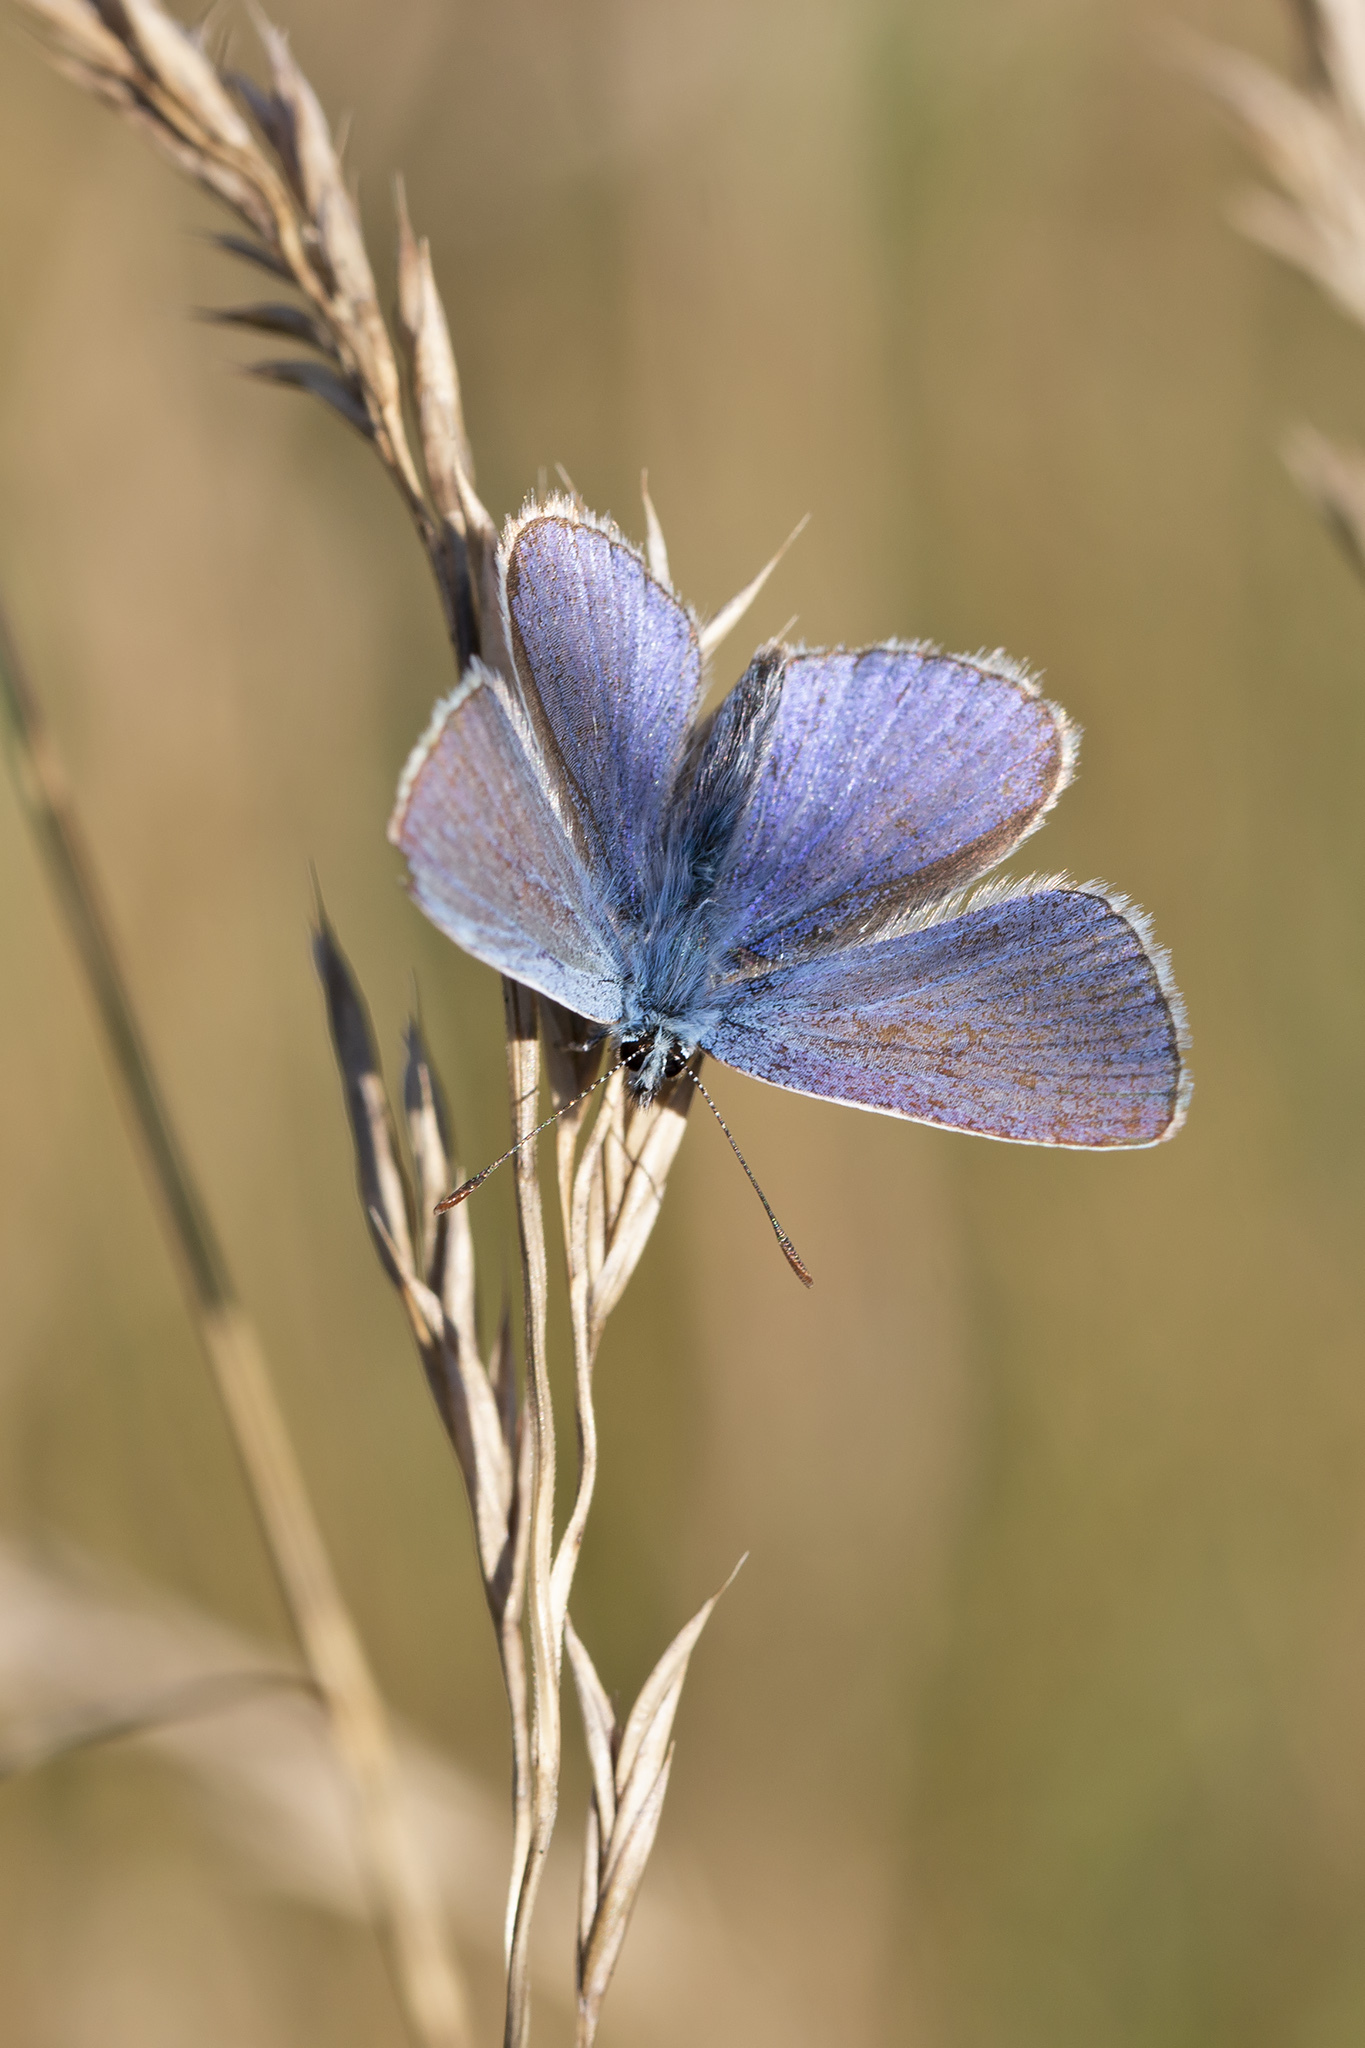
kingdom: Animalia
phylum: Arthropoda
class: Insecta
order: Lepidoptera
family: Lycaenidae
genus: Polyommatus
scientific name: Polyommatus icarus
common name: Common blue
